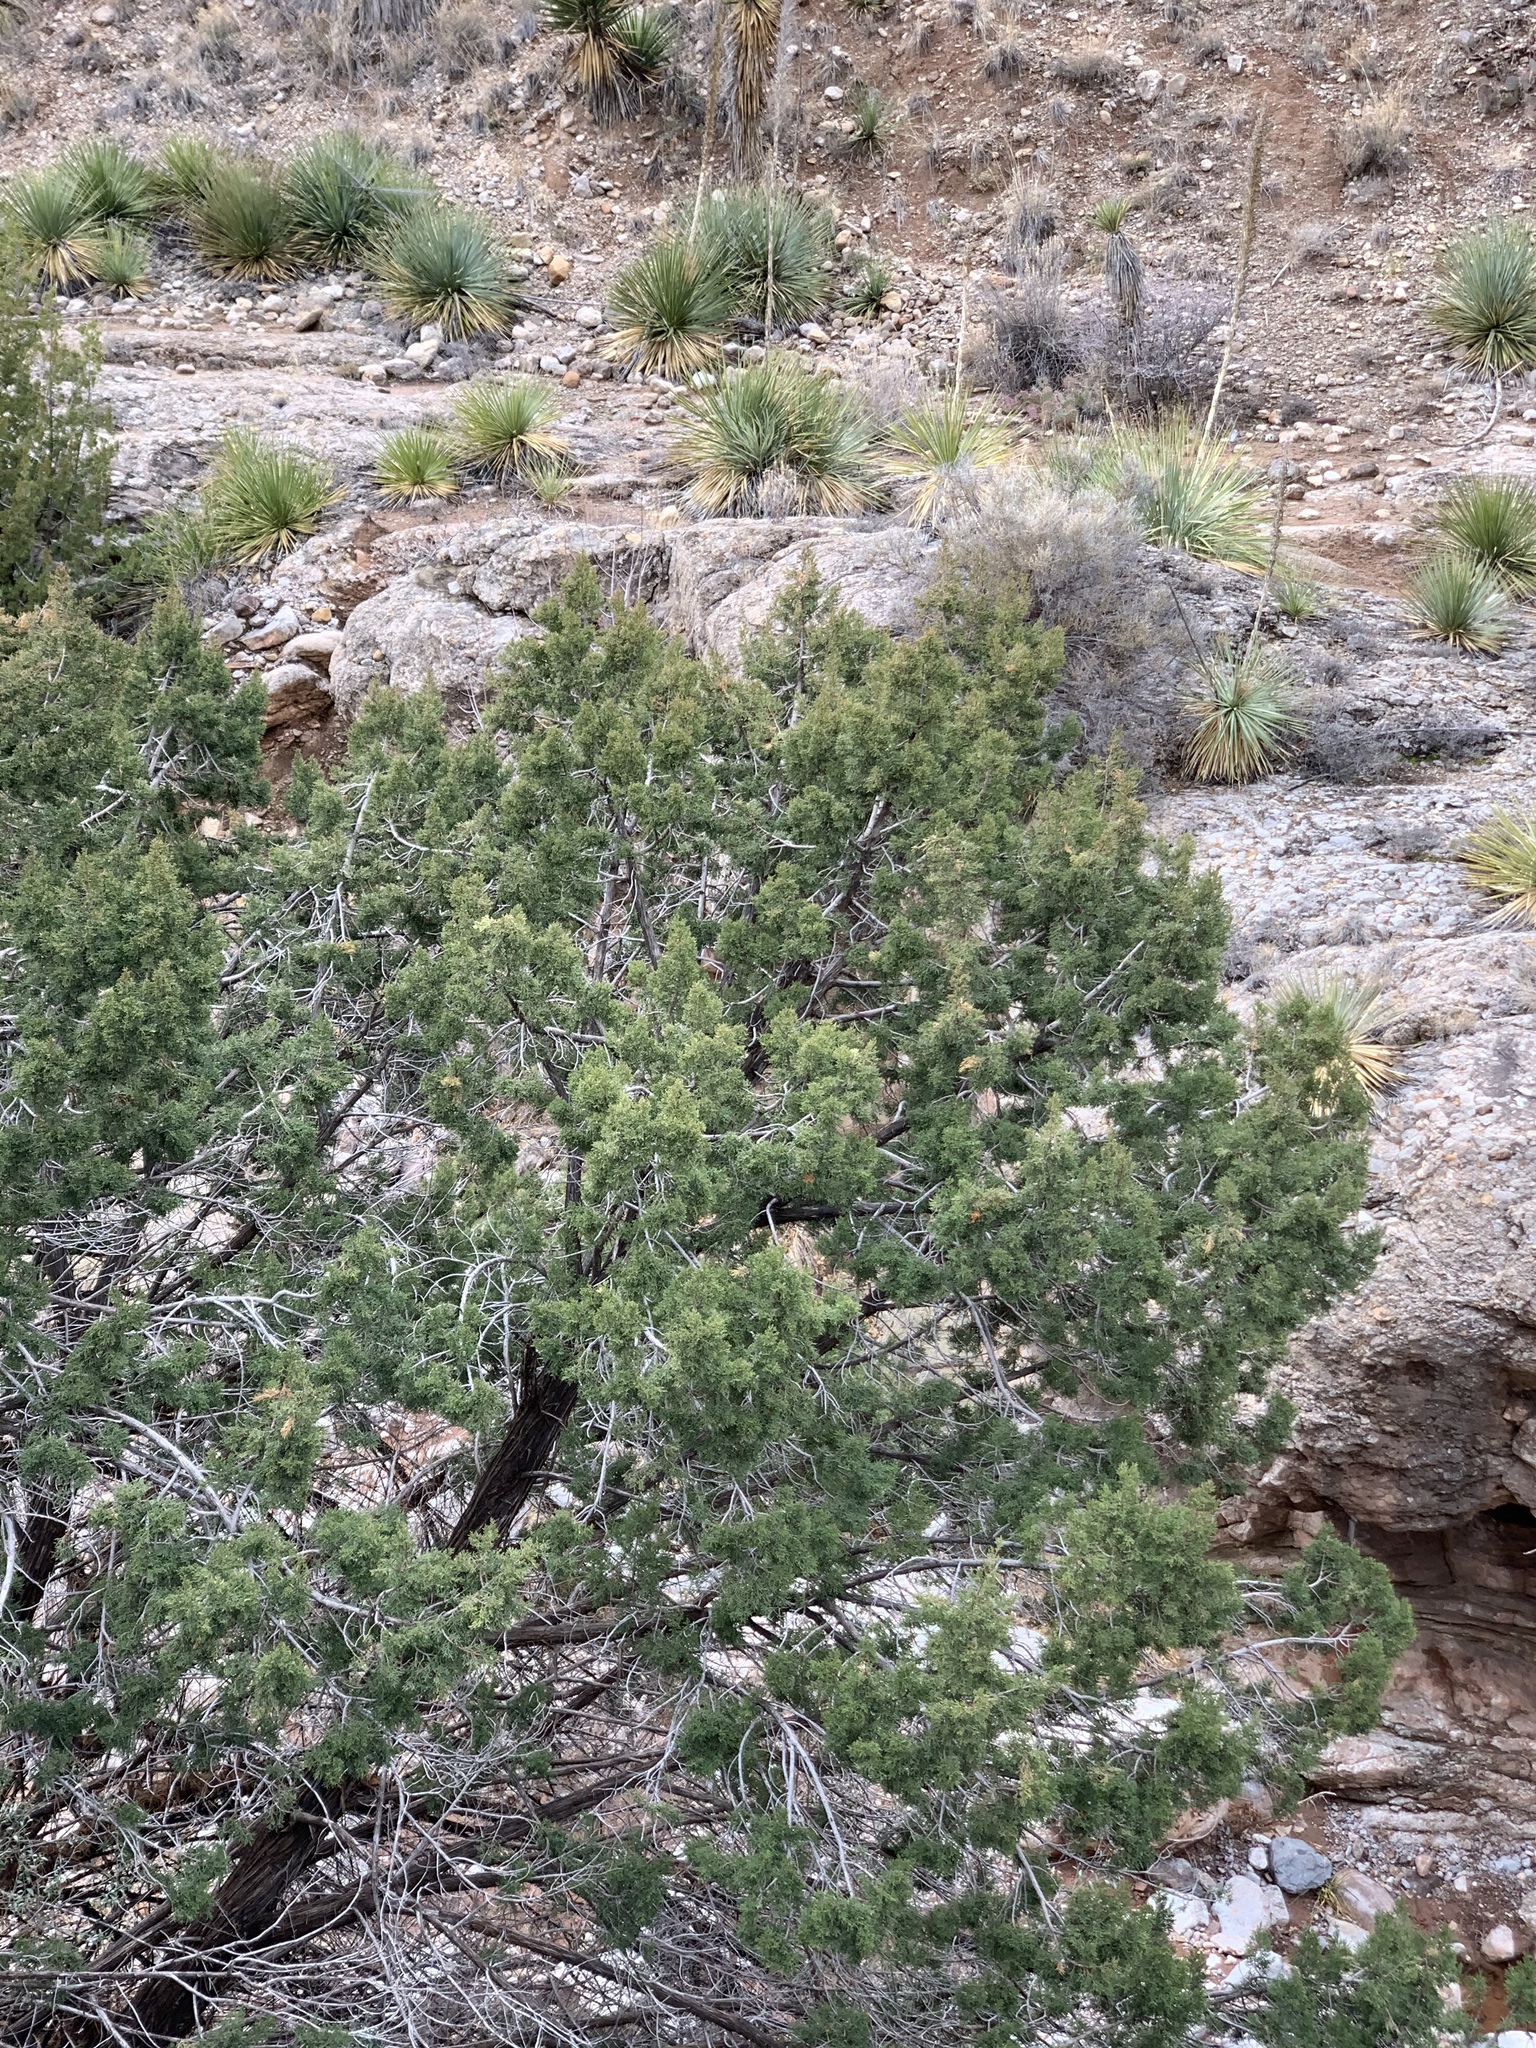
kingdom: Plantae
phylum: Tracheophyta
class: Pinopsida
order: Pinales
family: Cupressaceae
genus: Juniperus
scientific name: Juniperus monosperma
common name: One-seed juniper
